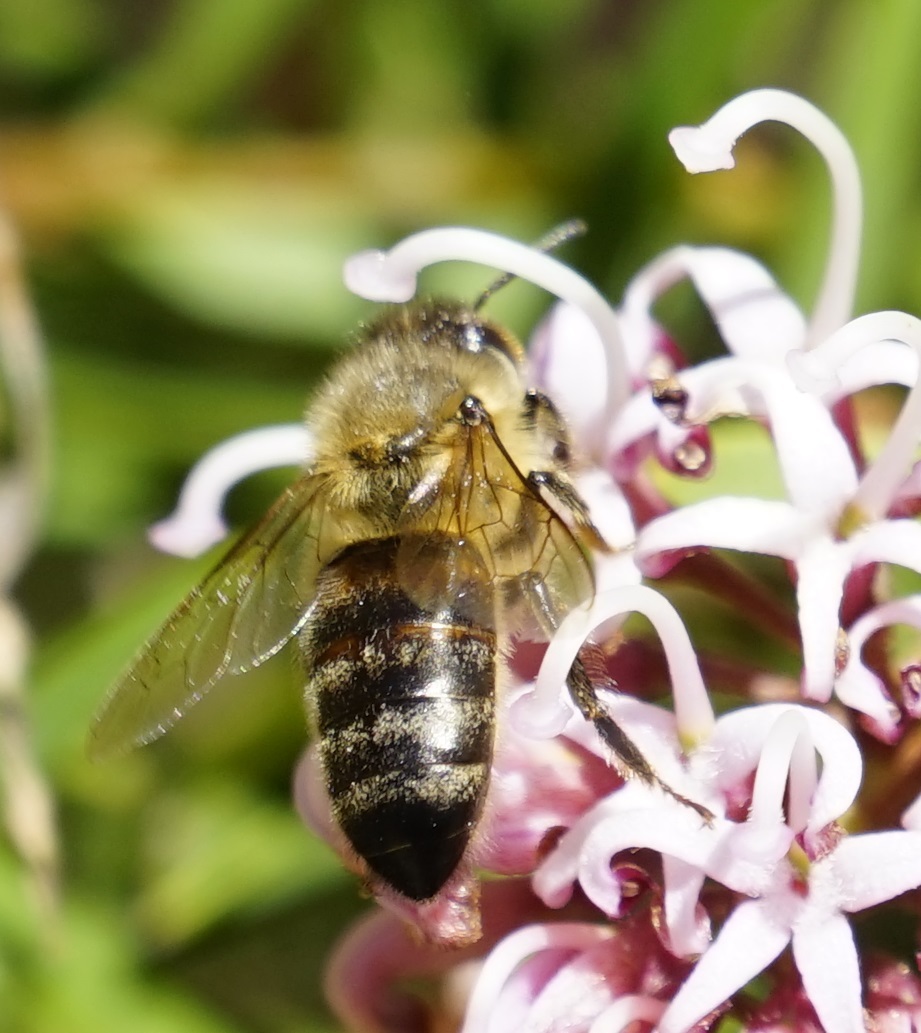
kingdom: Animalia
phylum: Arthropoda
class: Insecta
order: Hymenoptera
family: Apidae
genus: Apis
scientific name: Apis mellifera
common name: Honey bee
